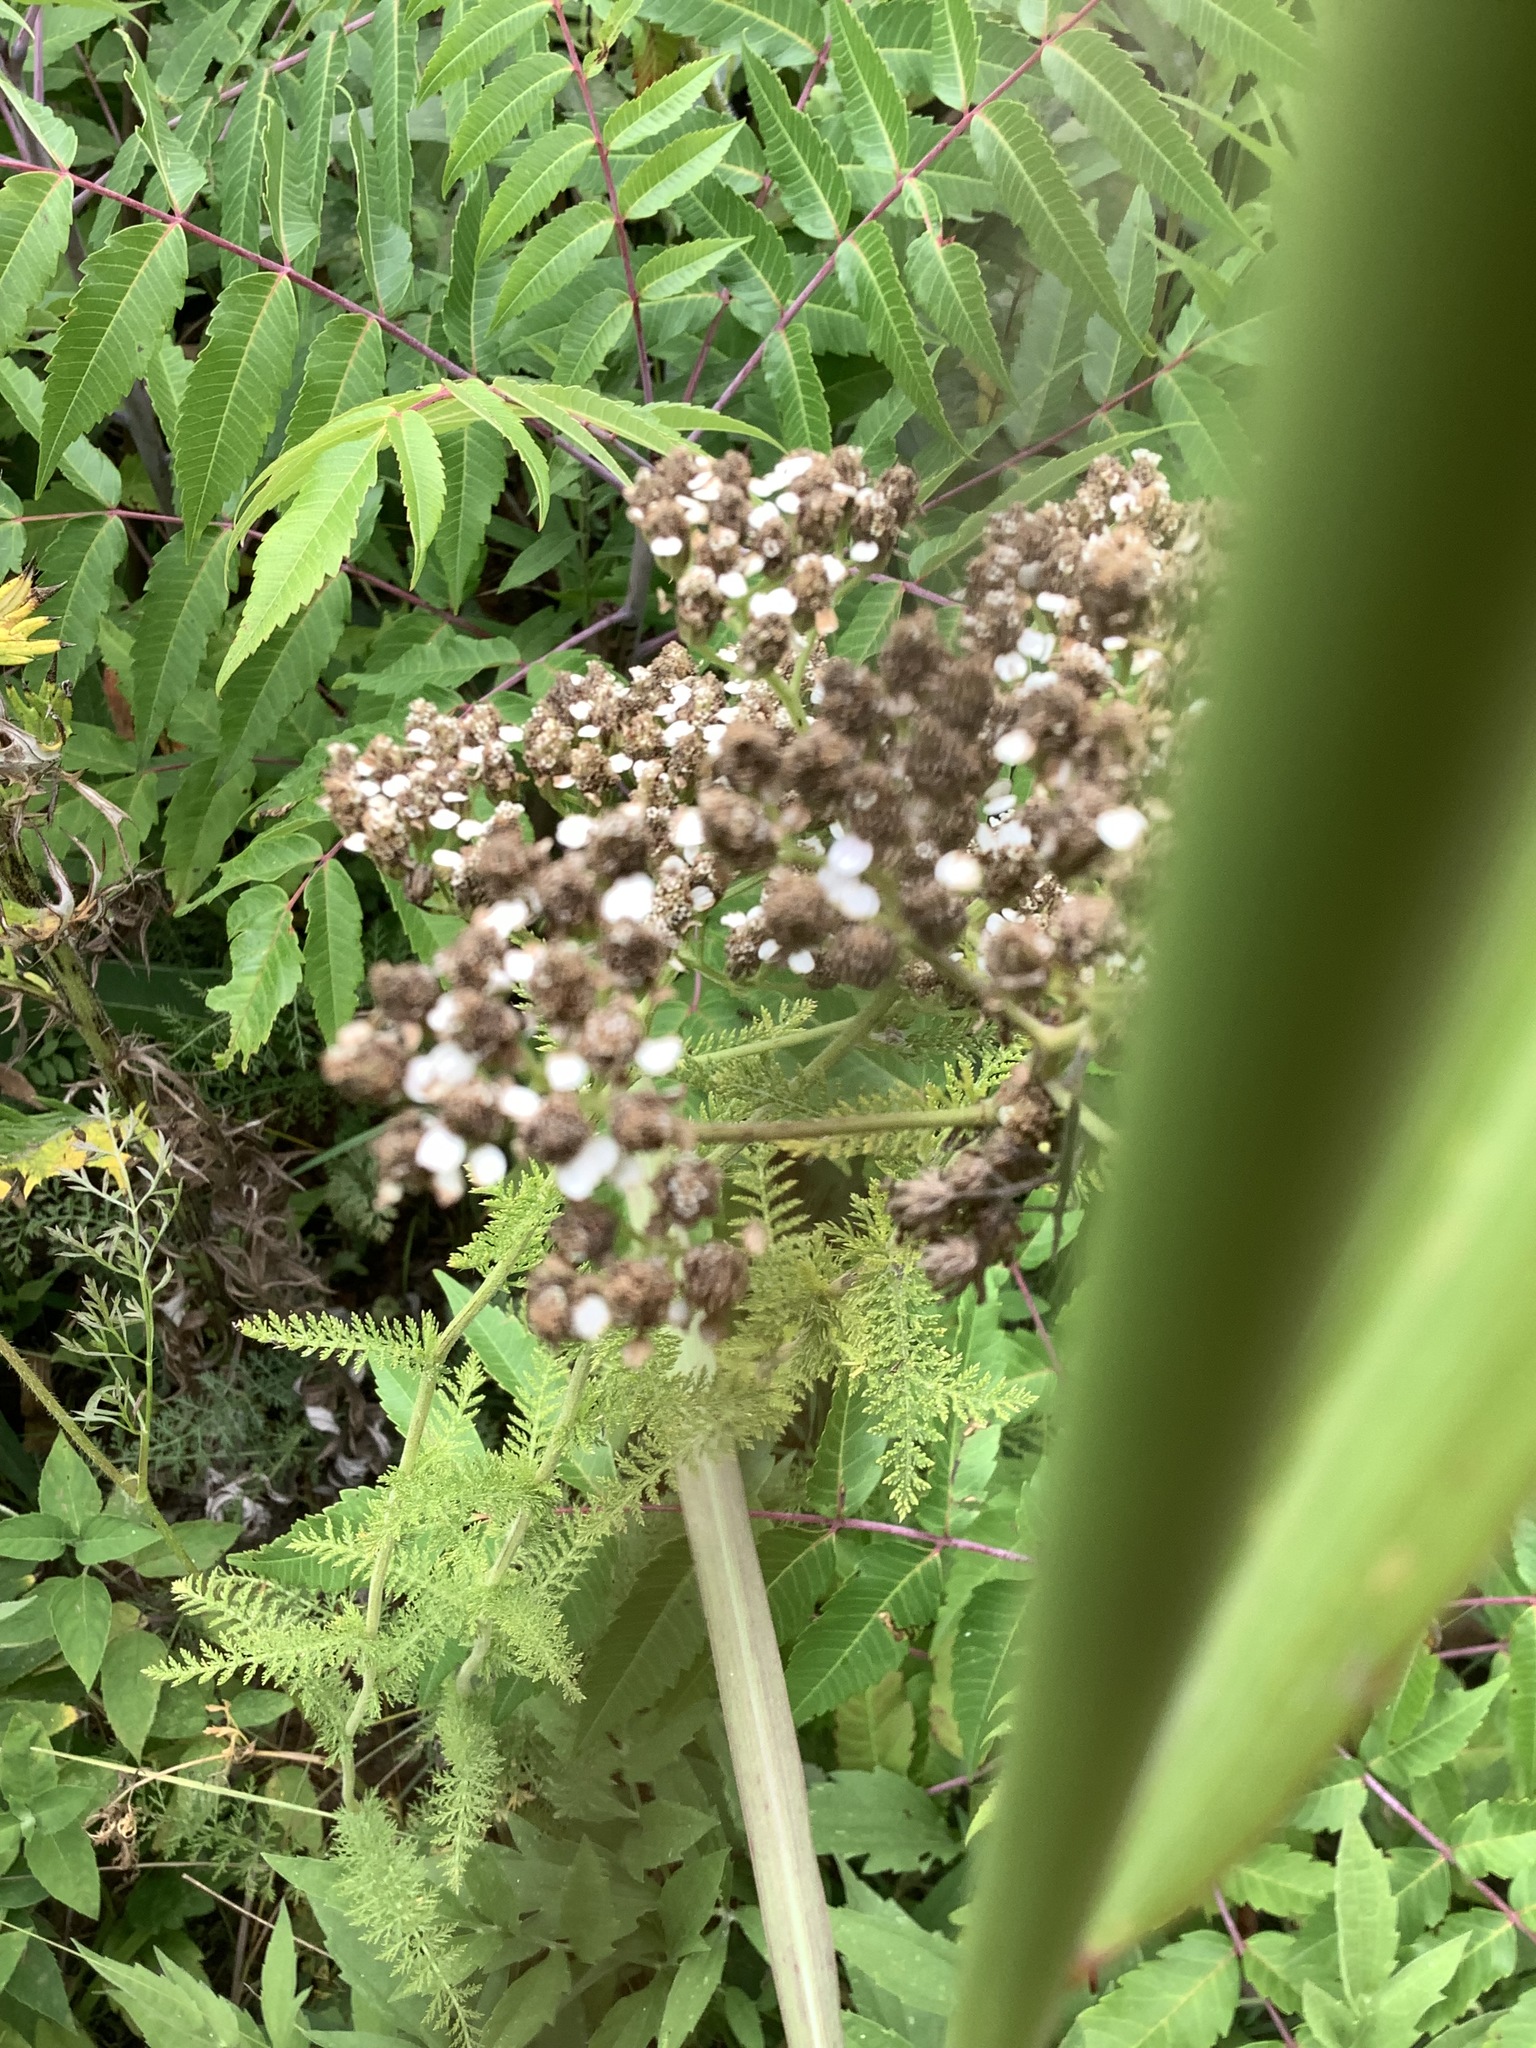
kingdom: Plantae
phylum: Tracheophyta
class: Magnoliopsida
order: Asterales
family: Asteraceae
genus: Achillea
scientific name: Achillea millefolium
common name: Yarrow
